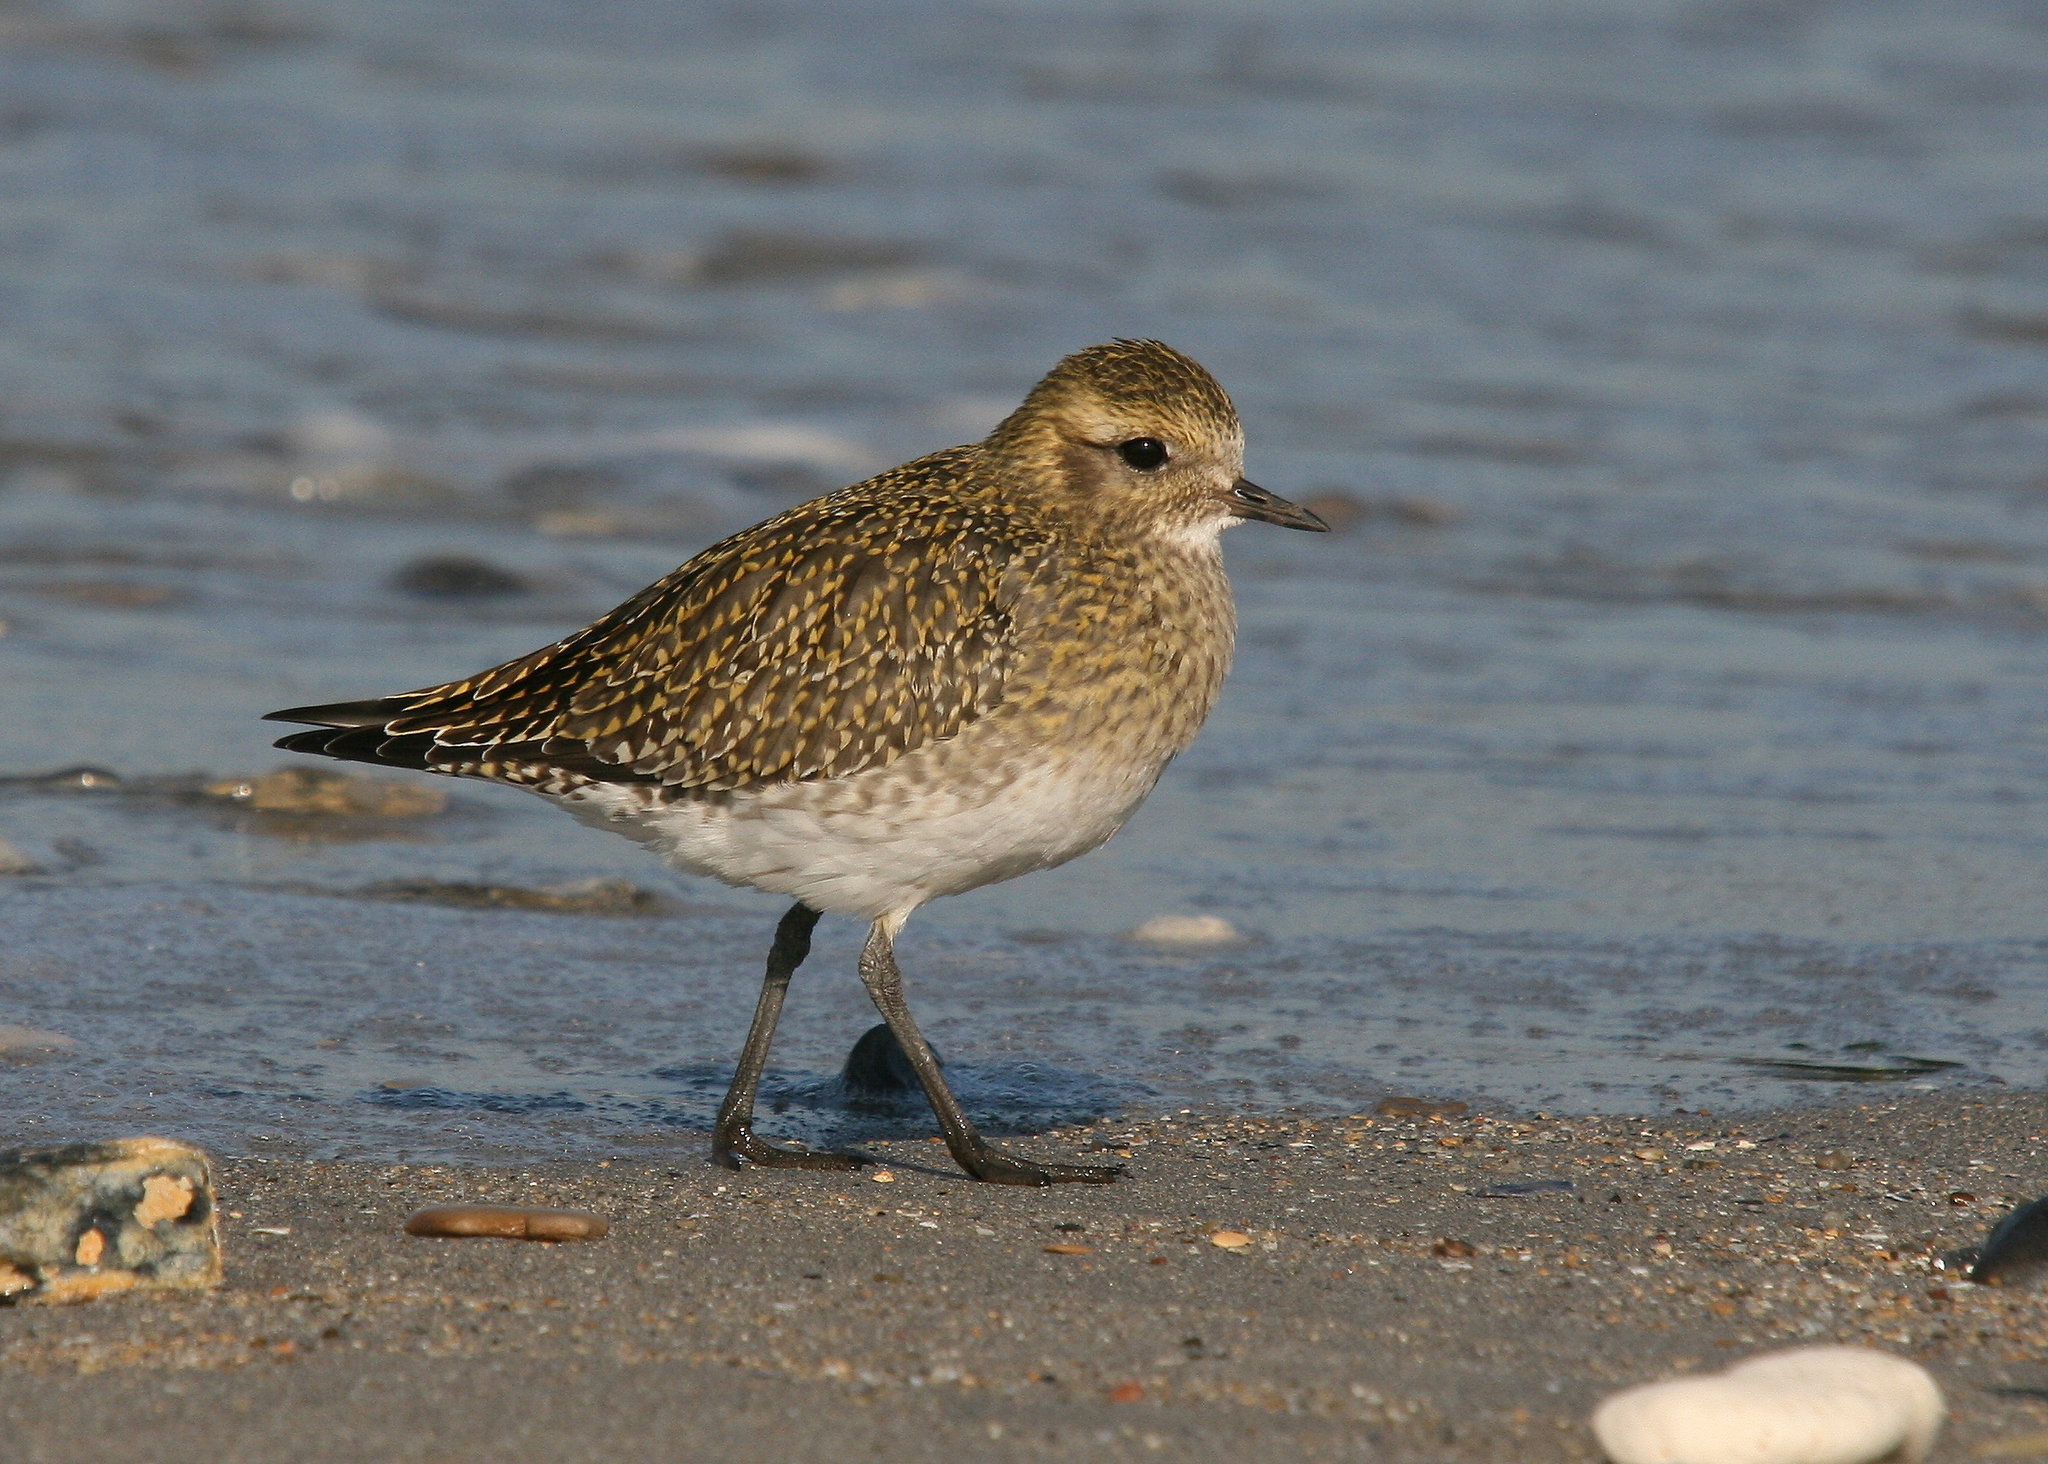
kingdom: Animalia
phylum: Chordata
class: Aves
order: Charadriiformes
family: Charadriidae
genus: Pluvialis
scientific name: Pluvialis apricaria
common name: European golden plover
